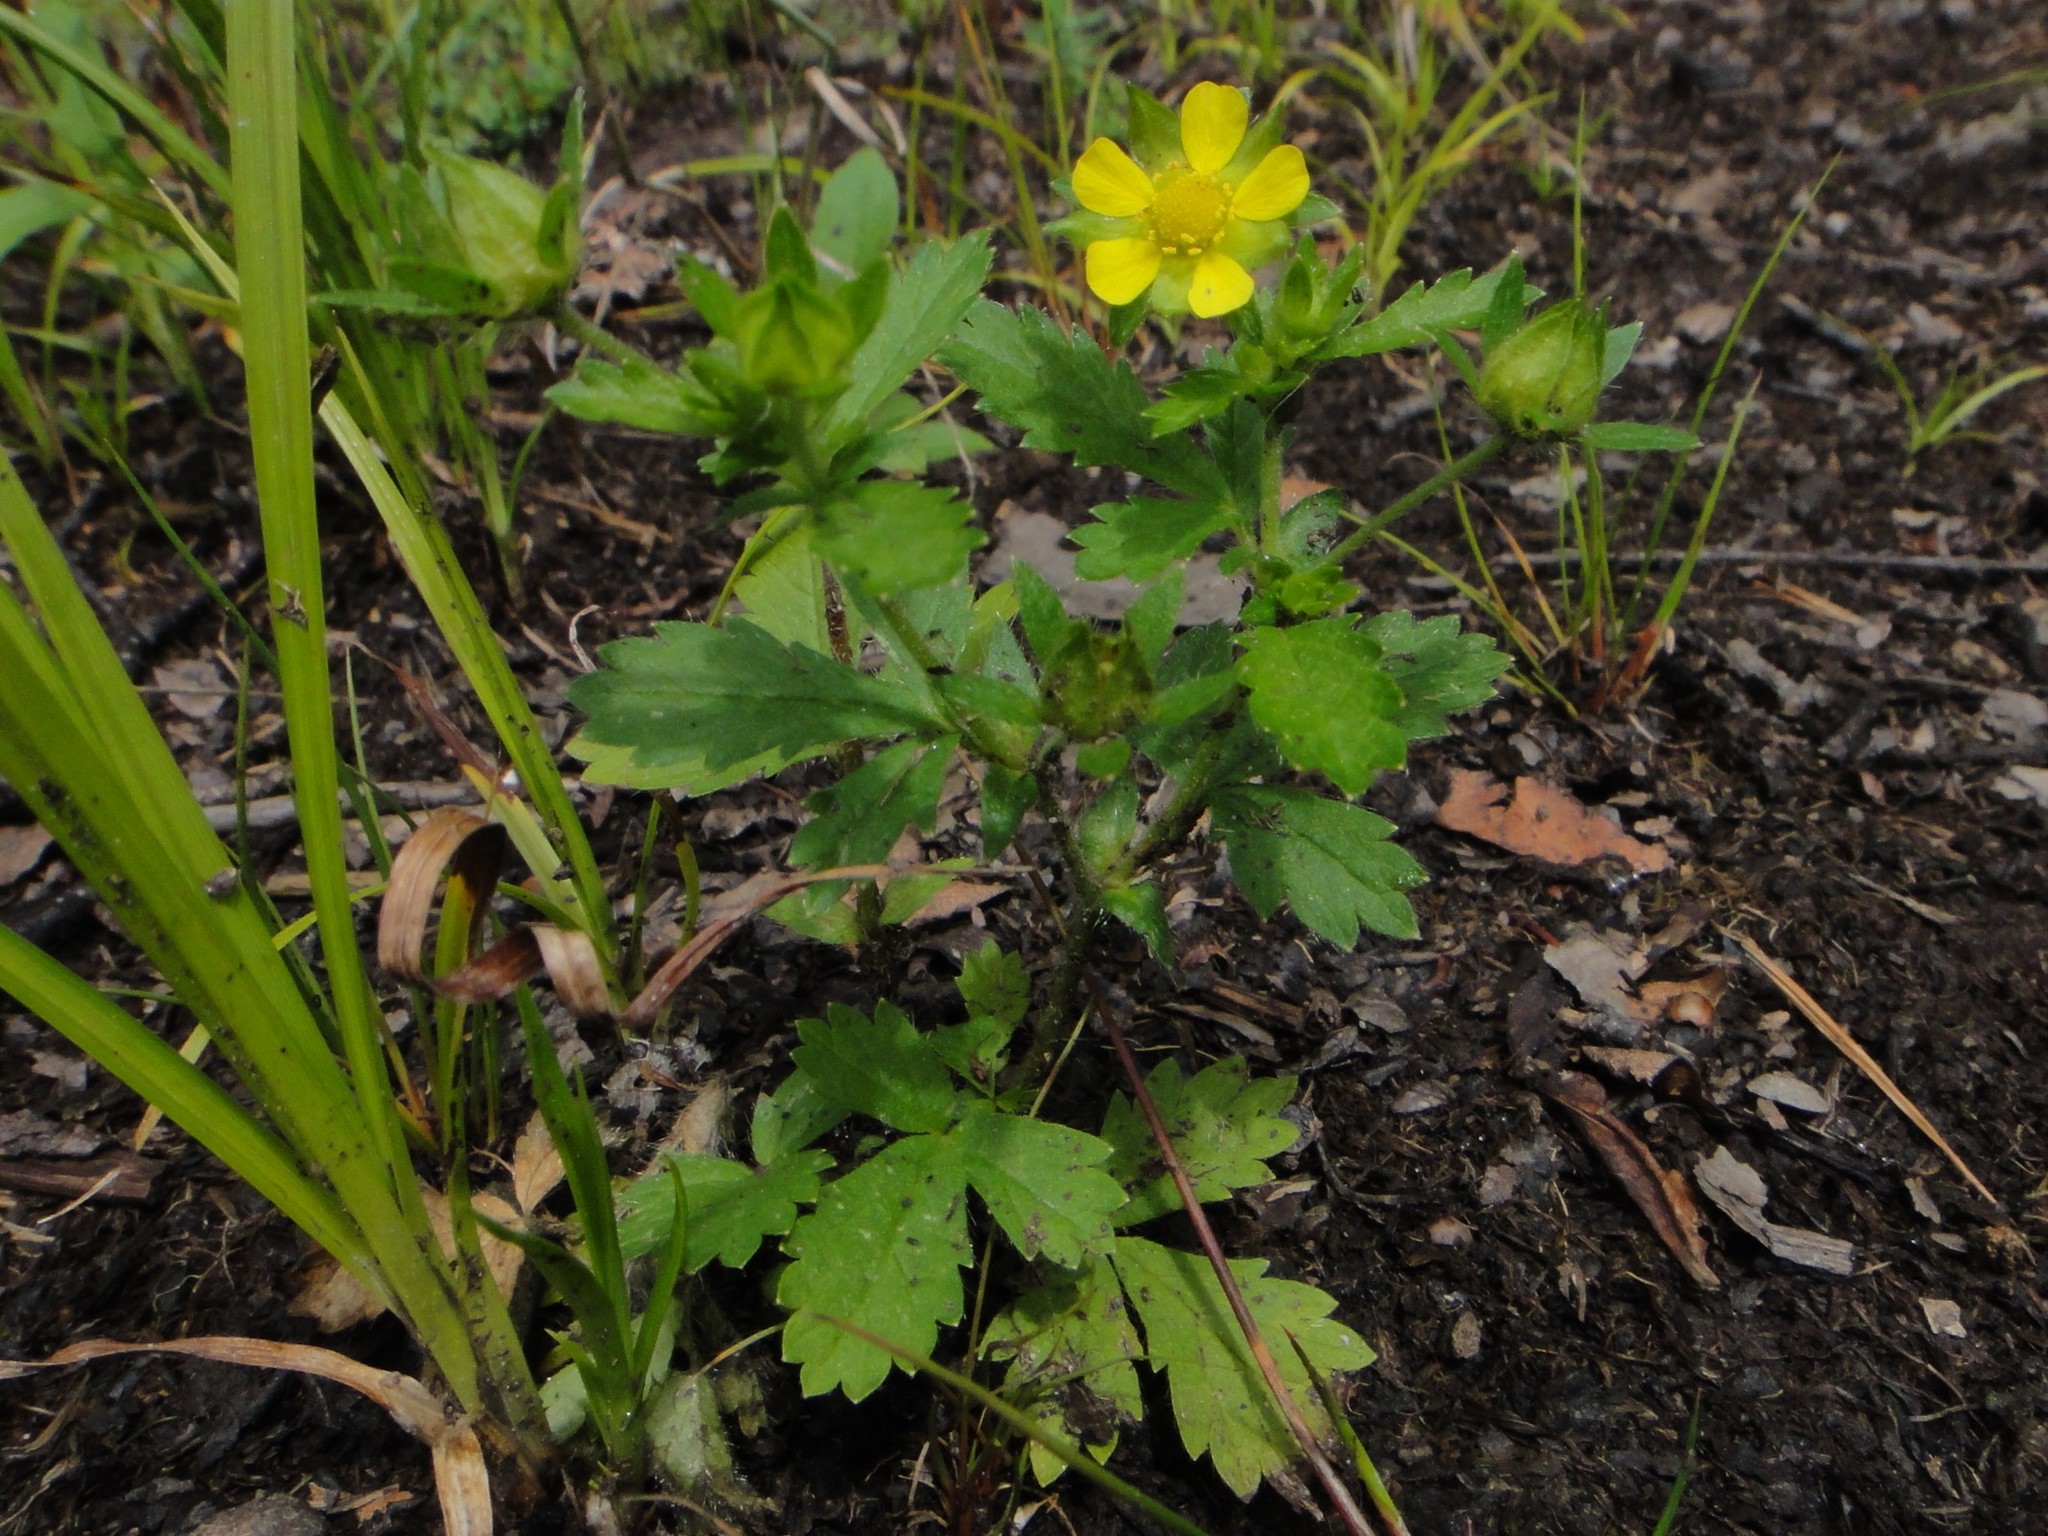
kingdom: Plantae
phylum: Tracheophyta
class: Magnoliopsida
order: Rosales
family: Rosaceae
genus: Potentilla
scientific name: Potentilla norvegica
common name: Ternate-leaved cinquefoil
